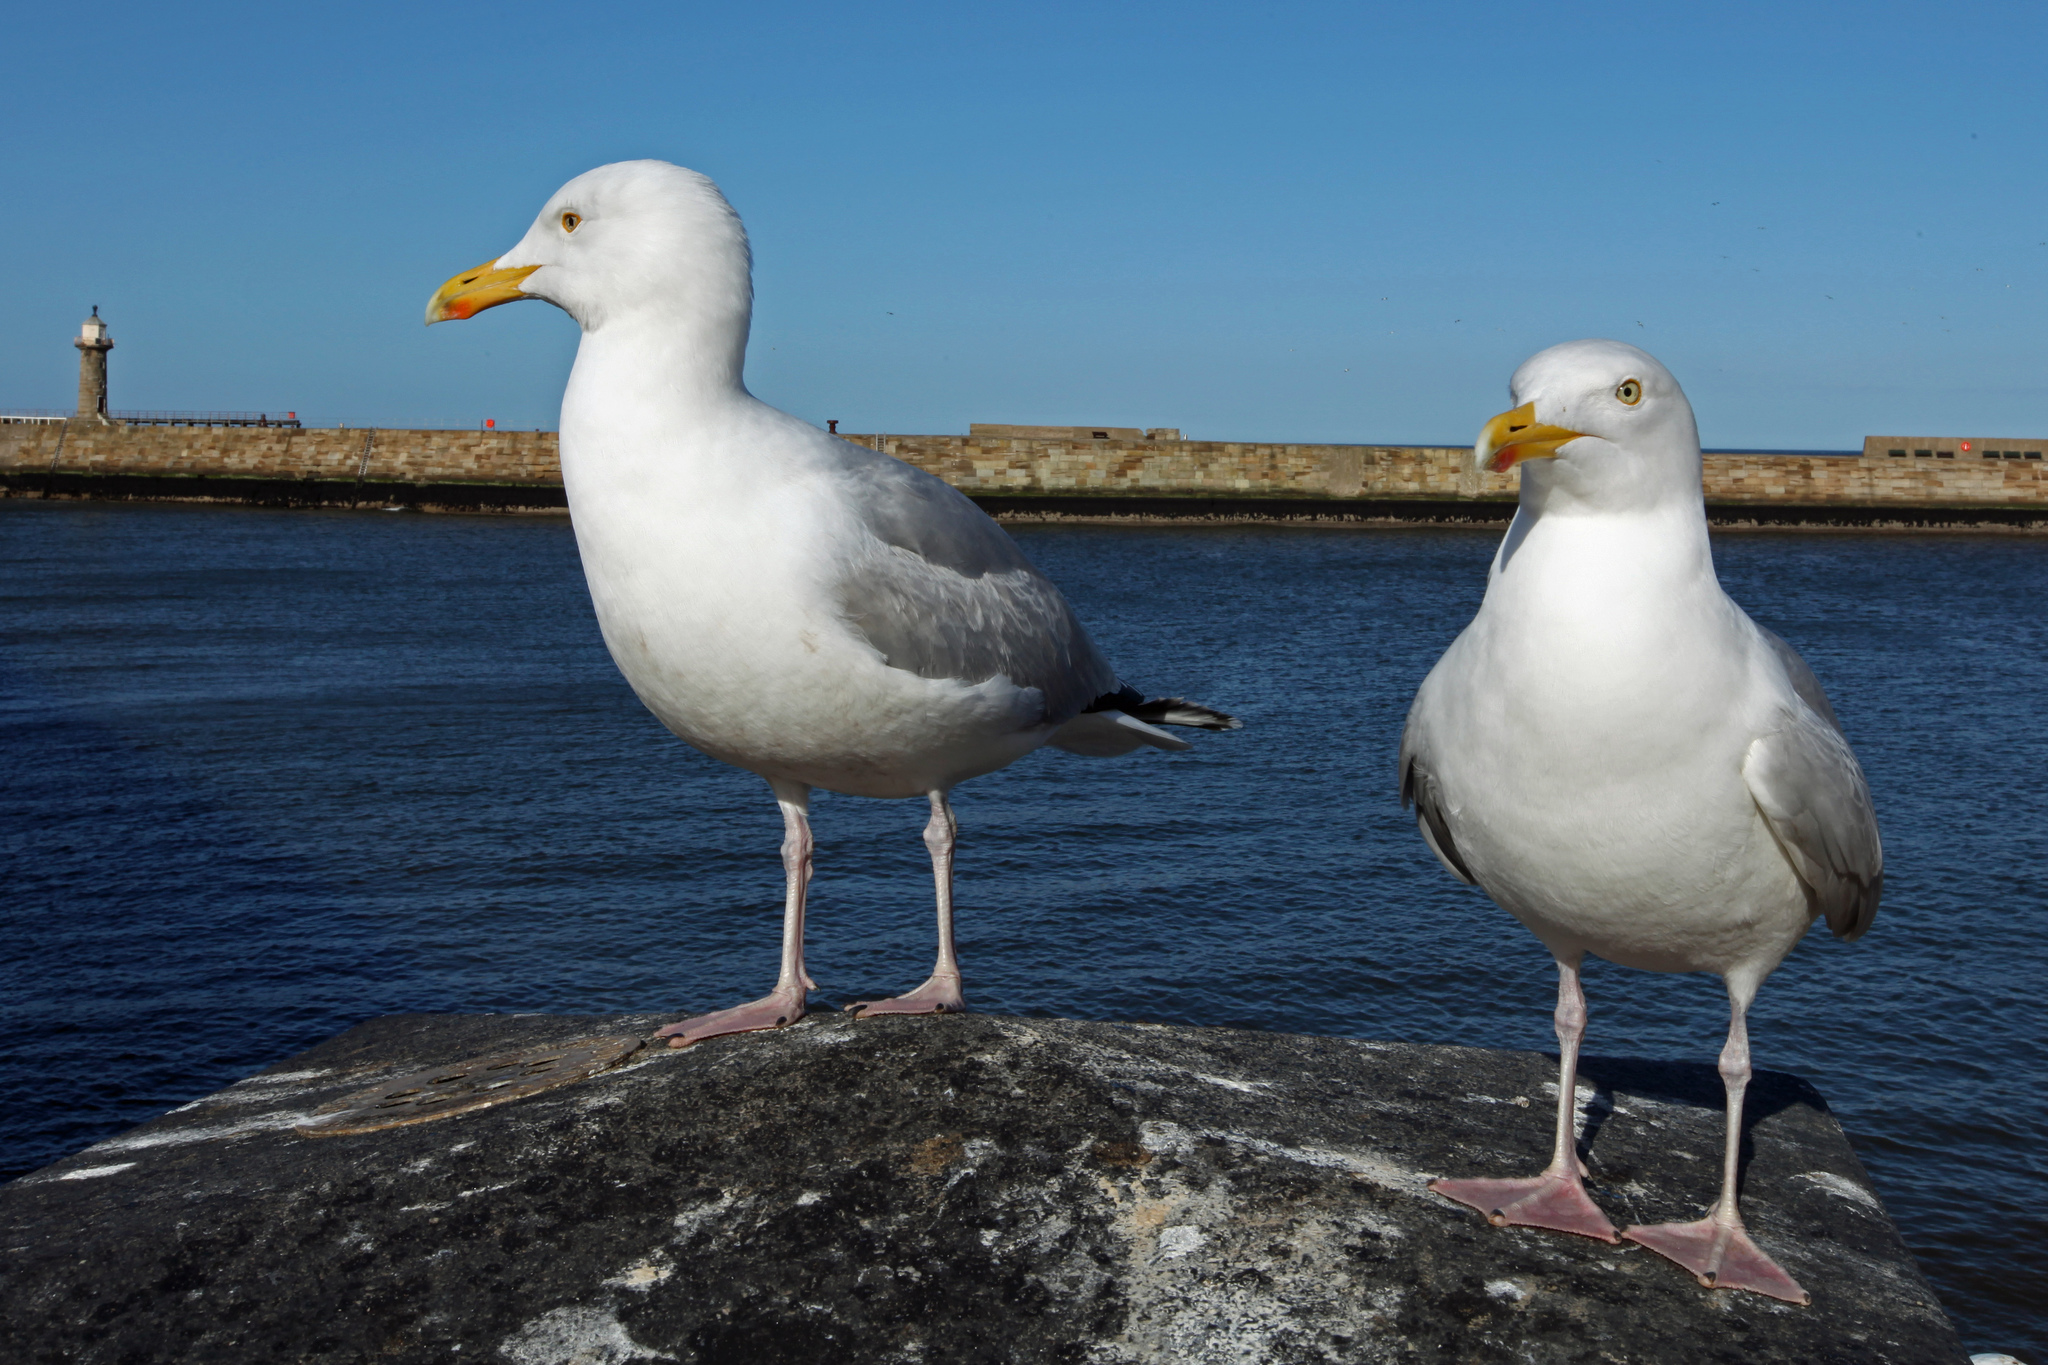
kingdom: Animalia
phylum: Chordata
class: Aves
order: Charadriiformes
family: Laridae
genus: Larus
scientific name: Larus argentatus
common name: Herring gull
